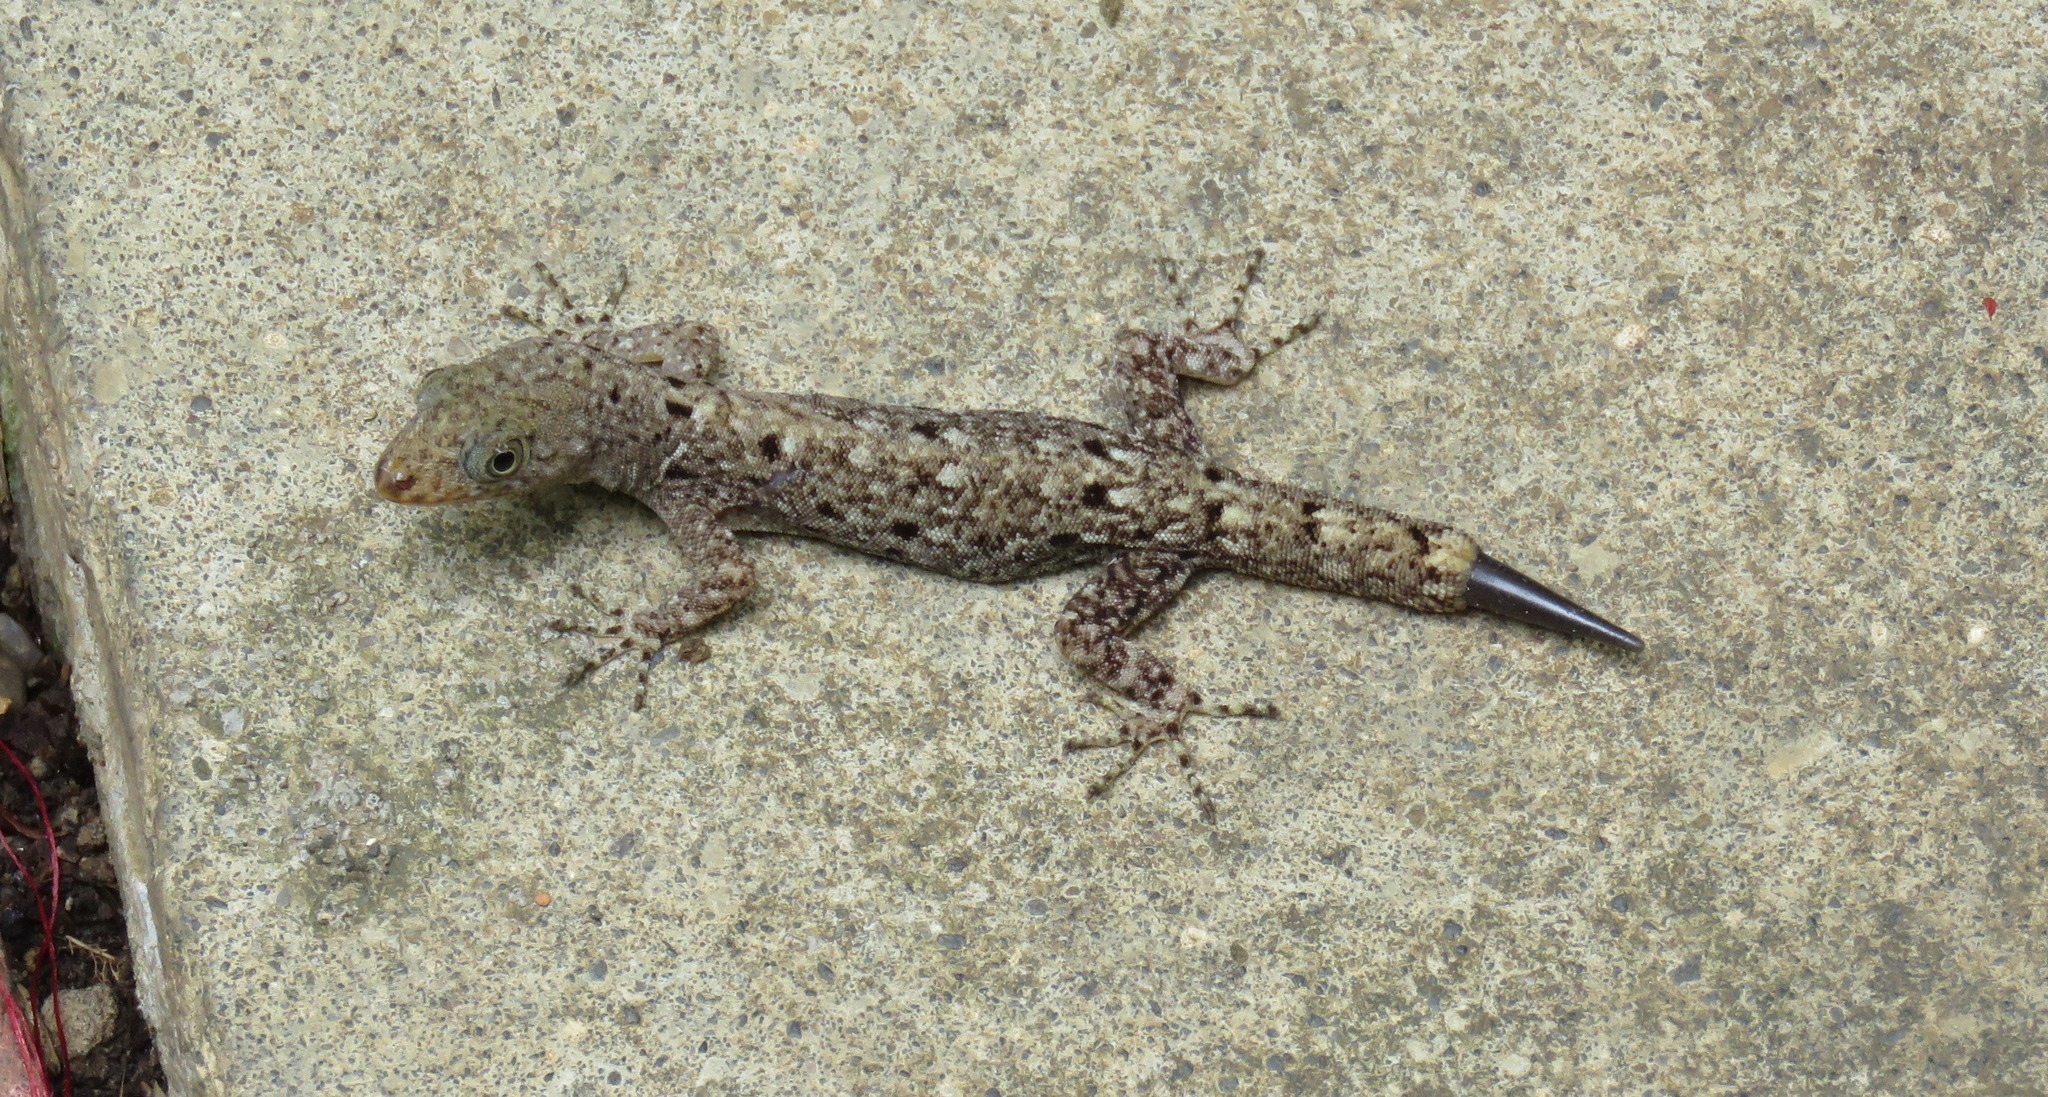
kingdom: Animalia
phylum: Chordata
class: Squamata
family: Sphaerodactylidae
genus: Gonatodes
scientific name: Gonatodes albogularis
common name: Yellow-headed gecko
